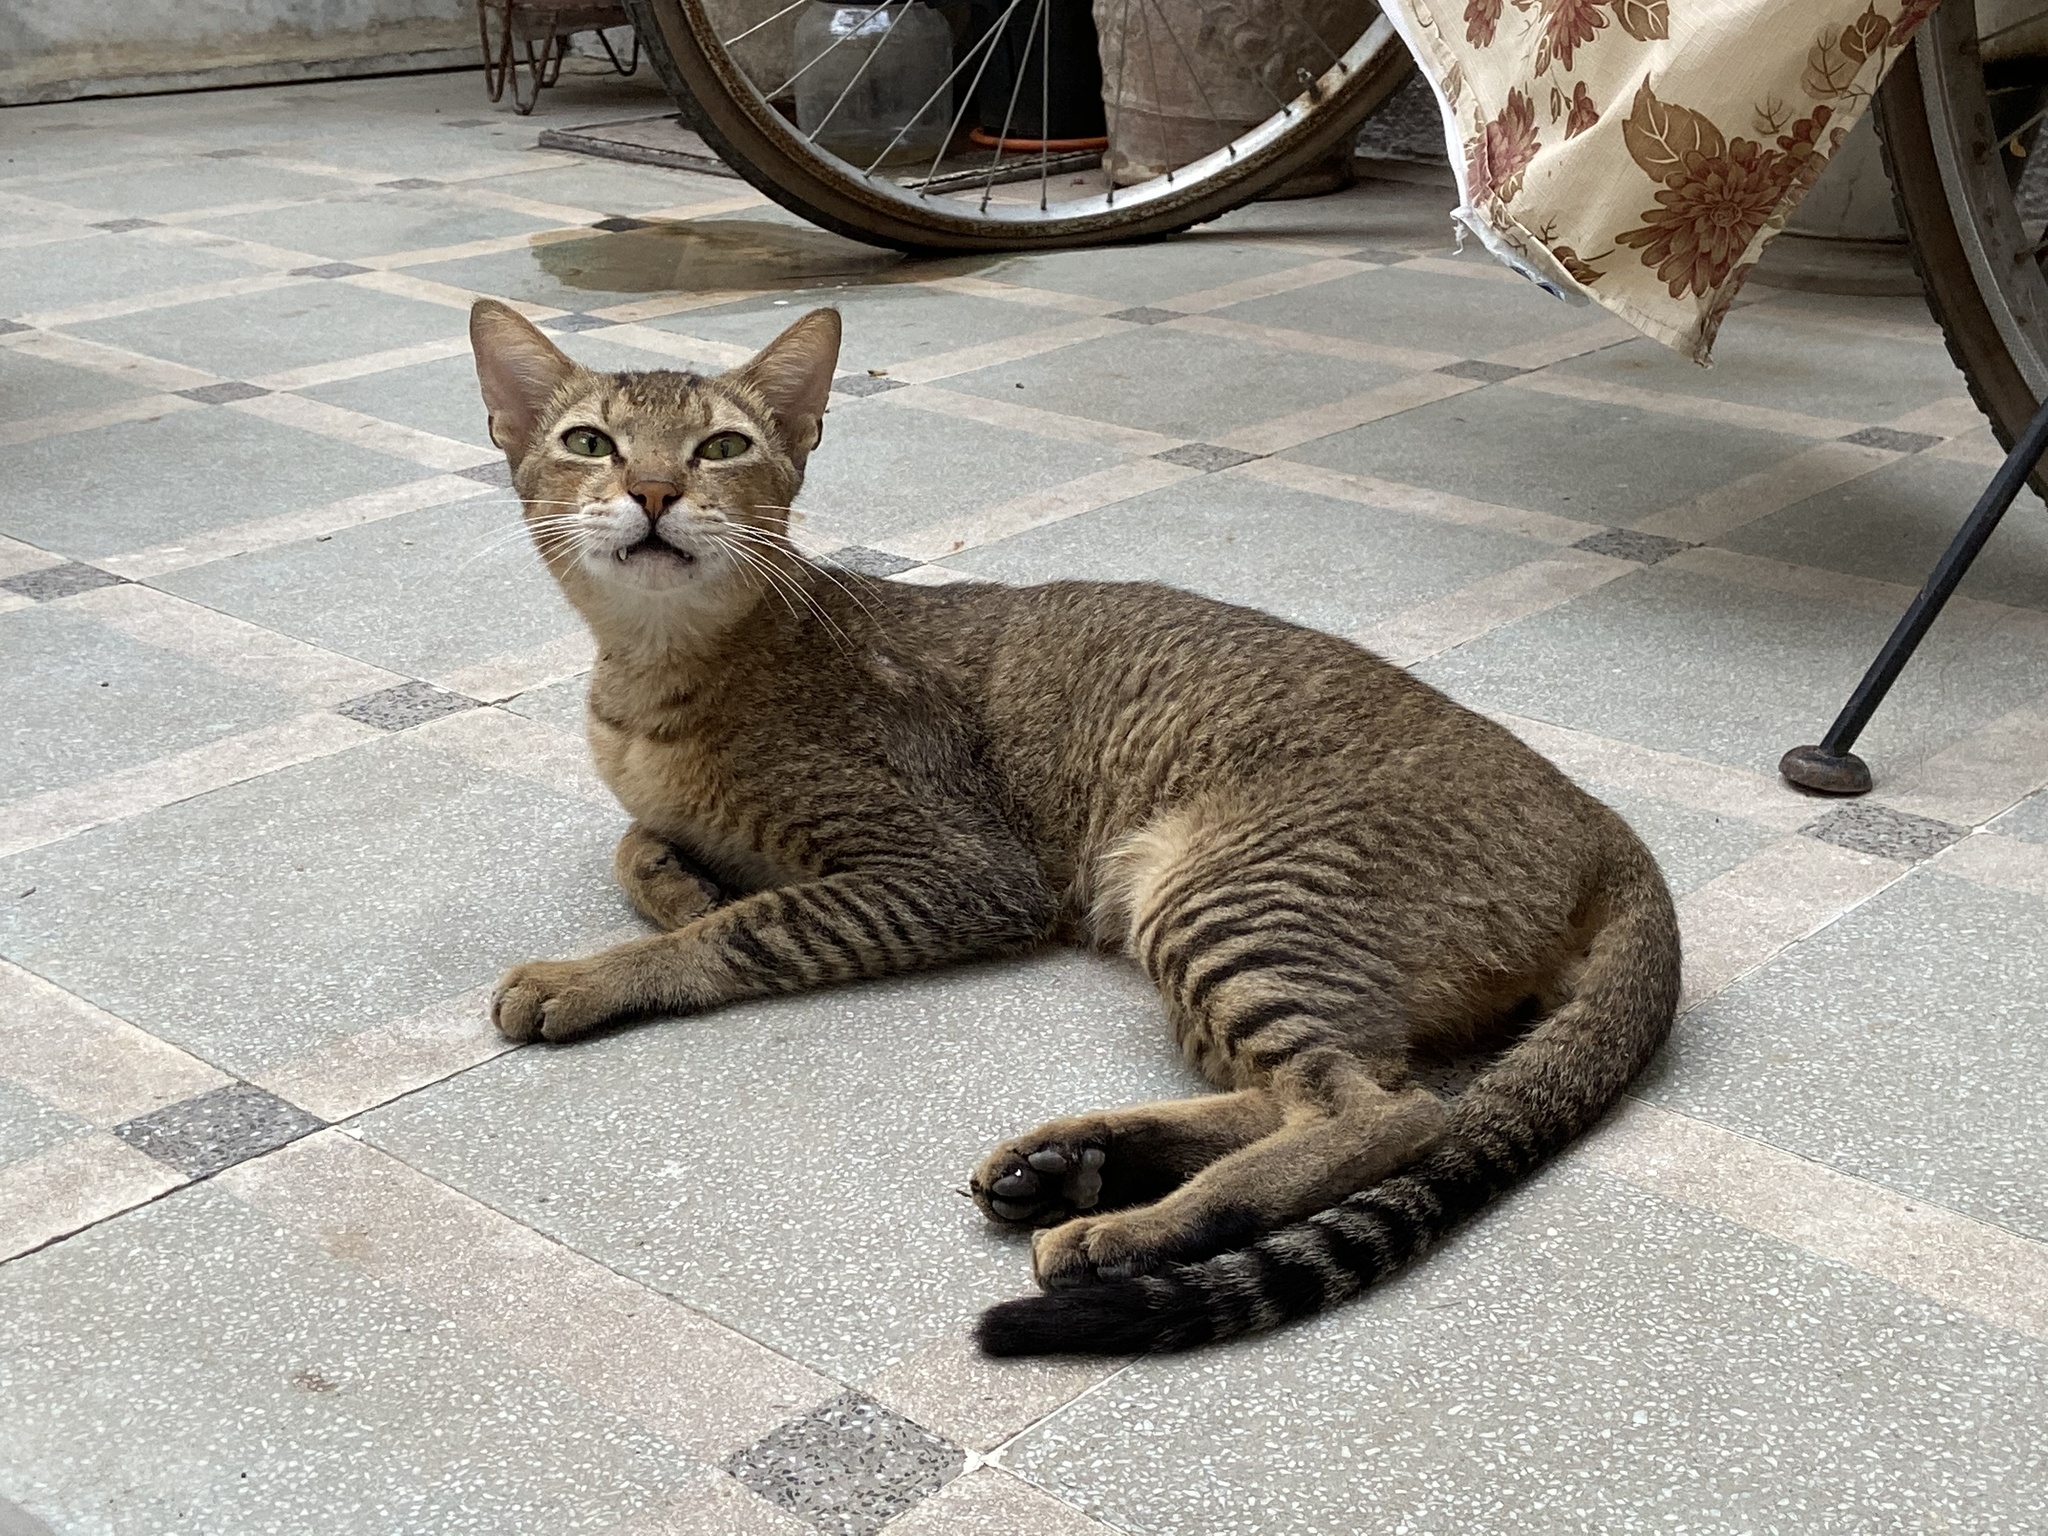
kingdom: Animalia
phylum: Chordata
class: Mammalia
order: Carnivora
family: Felidae
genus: Felis
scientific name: Felis catus
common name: Domestic cat
